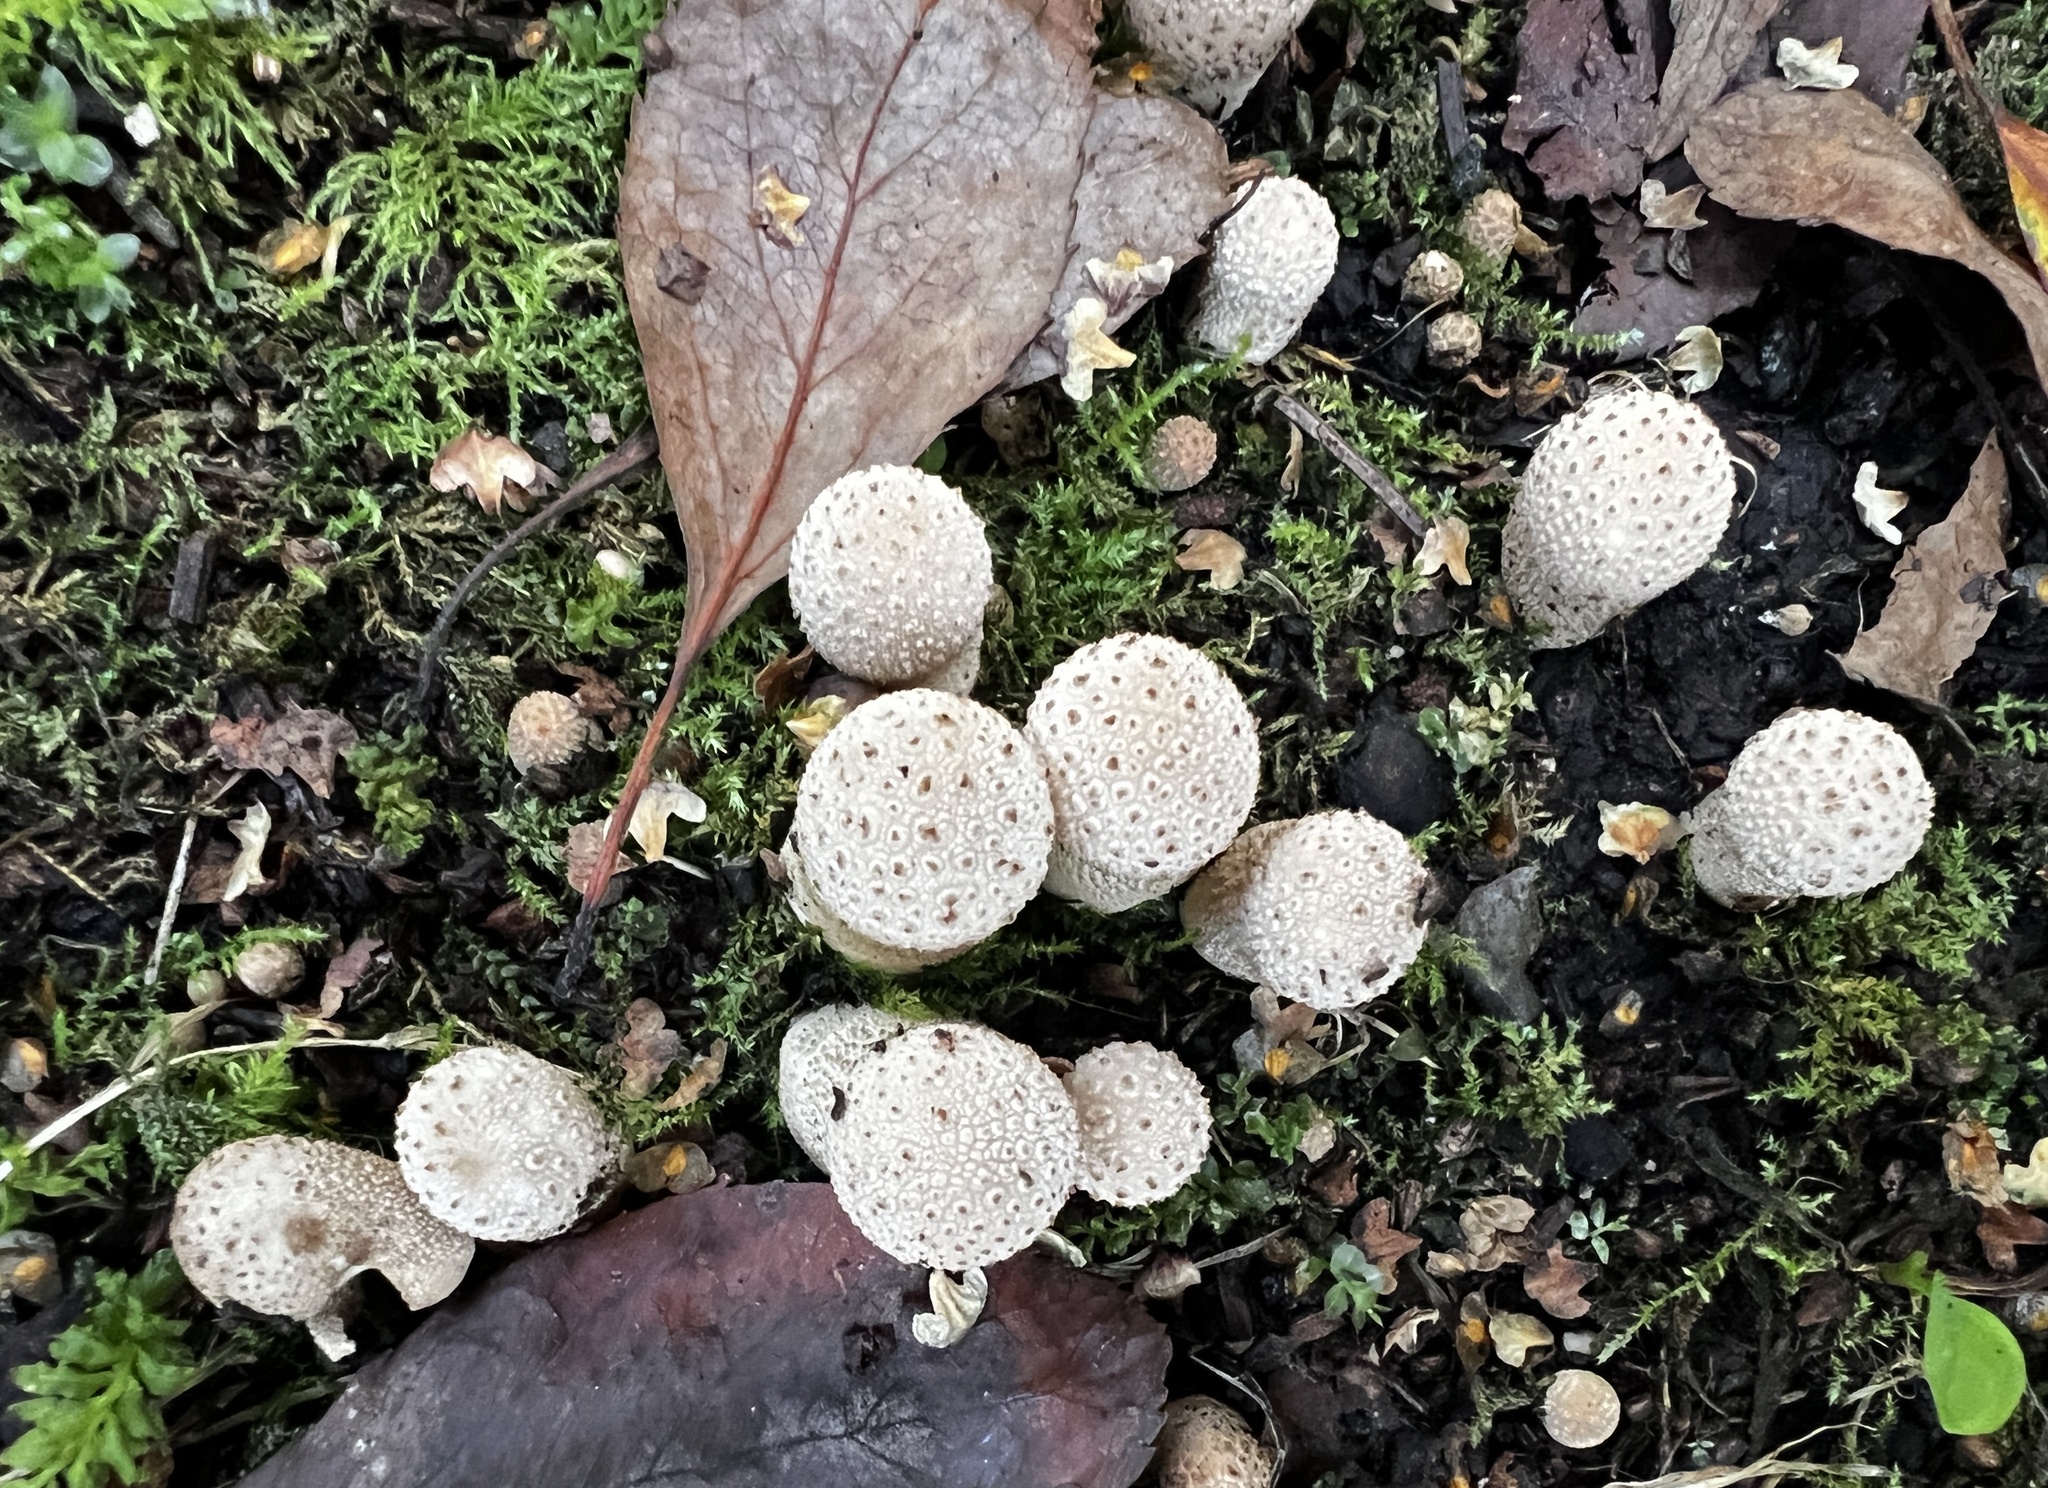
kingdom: Fungi
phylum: Basidiomycota
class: Agaricomycetes
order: Agaricales
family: Lycoperdaceae
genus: Lycoperdon
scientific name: Lycoperdon perlatum
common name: Common puffball
